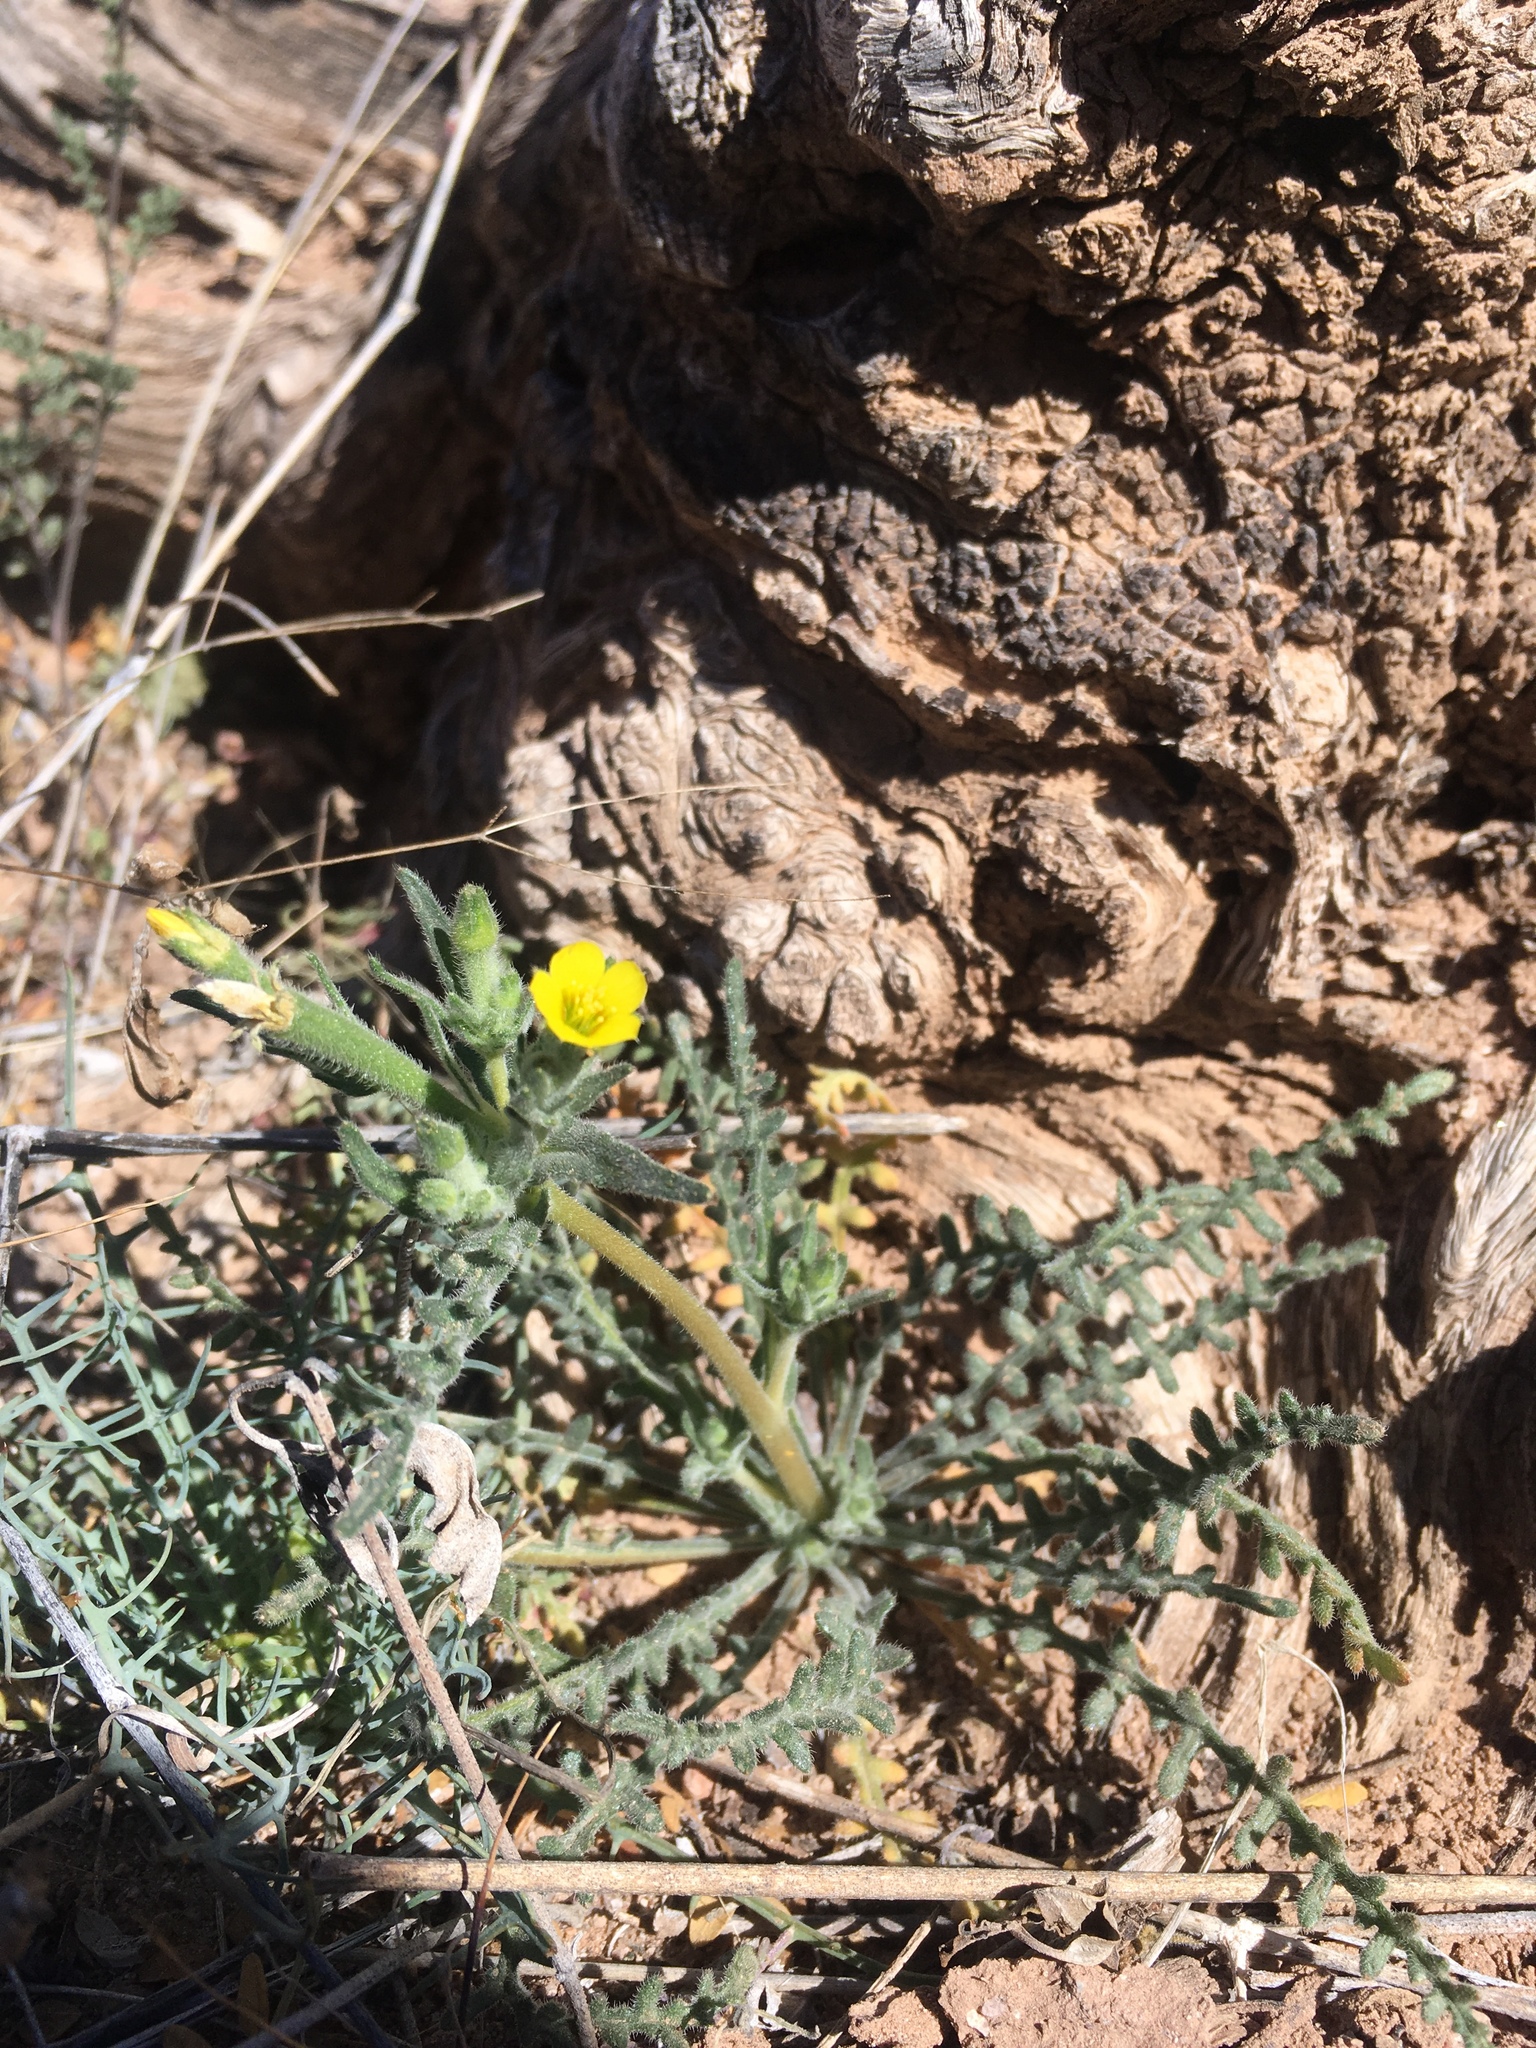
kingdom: Plantae
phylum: Tracheophyta
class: Magnoliopsida
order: Cornales
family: Loasaceae
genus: Mentzelia
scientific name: Mentzelia albicaulis
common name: White-stem blazingstar
